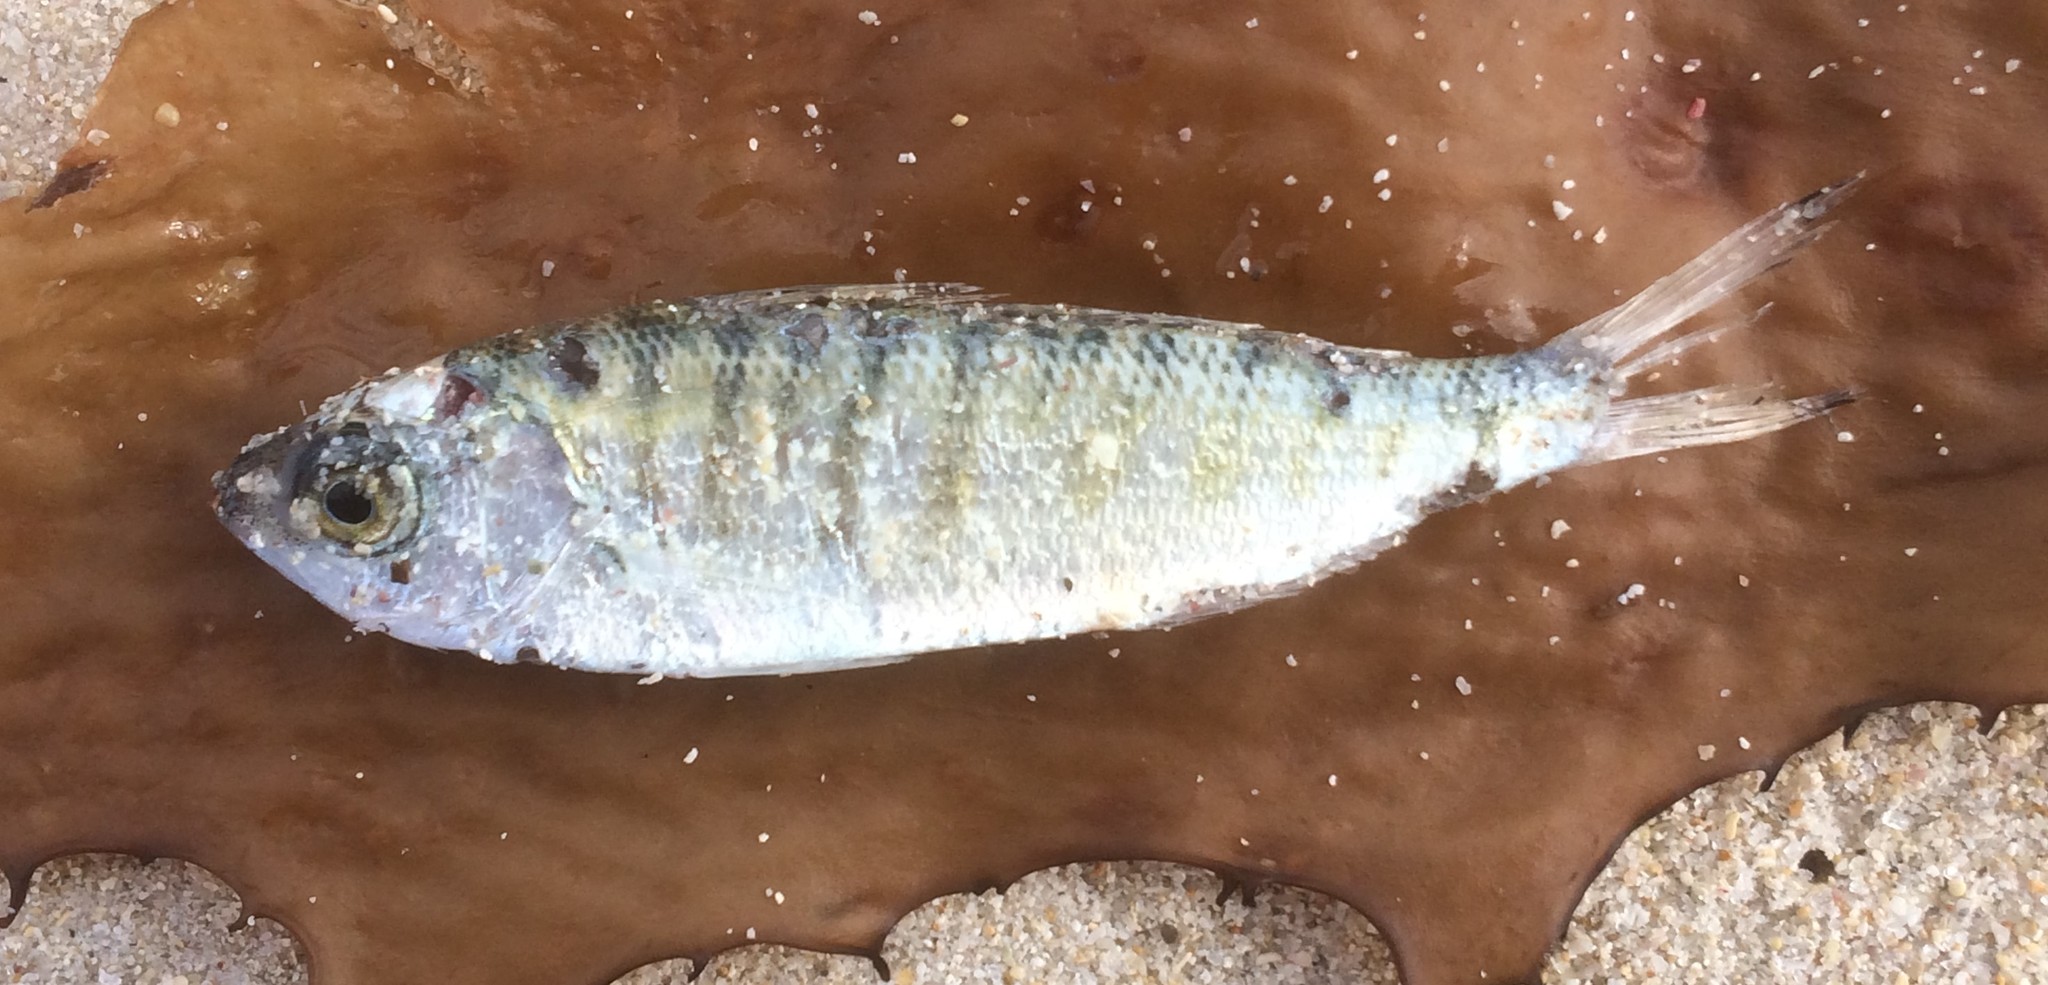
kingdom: Animalia
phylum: Chordata
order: Perciformes
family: Arripidae
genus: Arripis
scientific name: Arripis georgianus
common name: Australian herring
